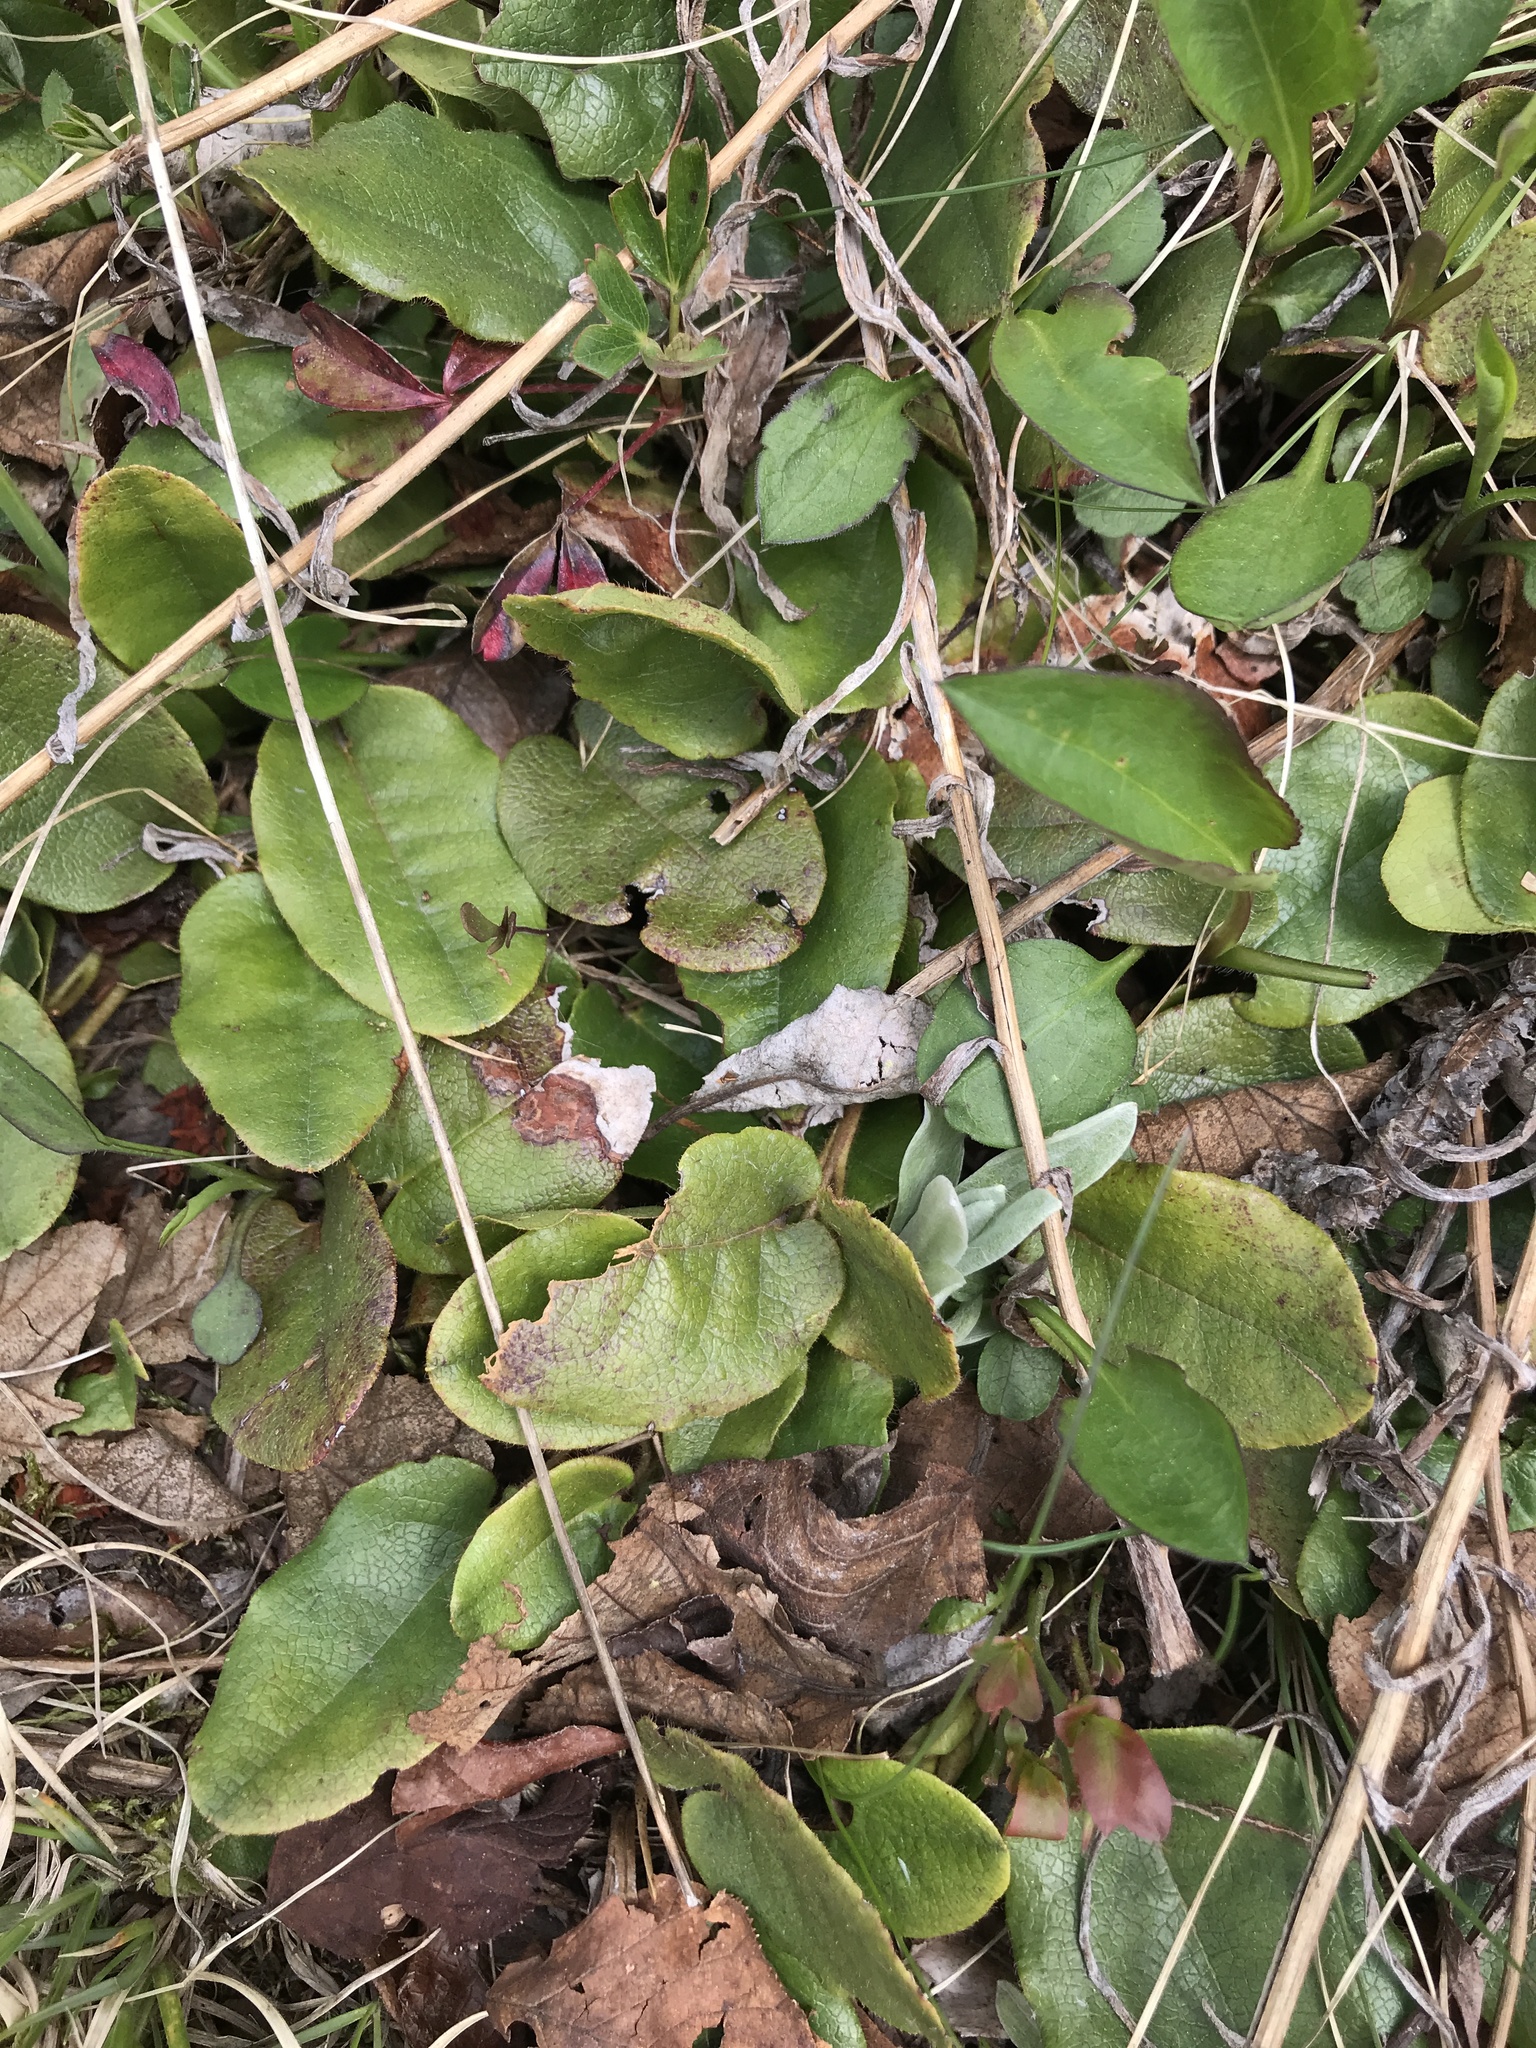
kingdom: Plantae
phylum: Tracheophyta
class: Magnoliopsida
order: Ericales
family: Ericaceae
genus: Epigaea
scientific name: Epigaea repens
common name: Gravelroot
